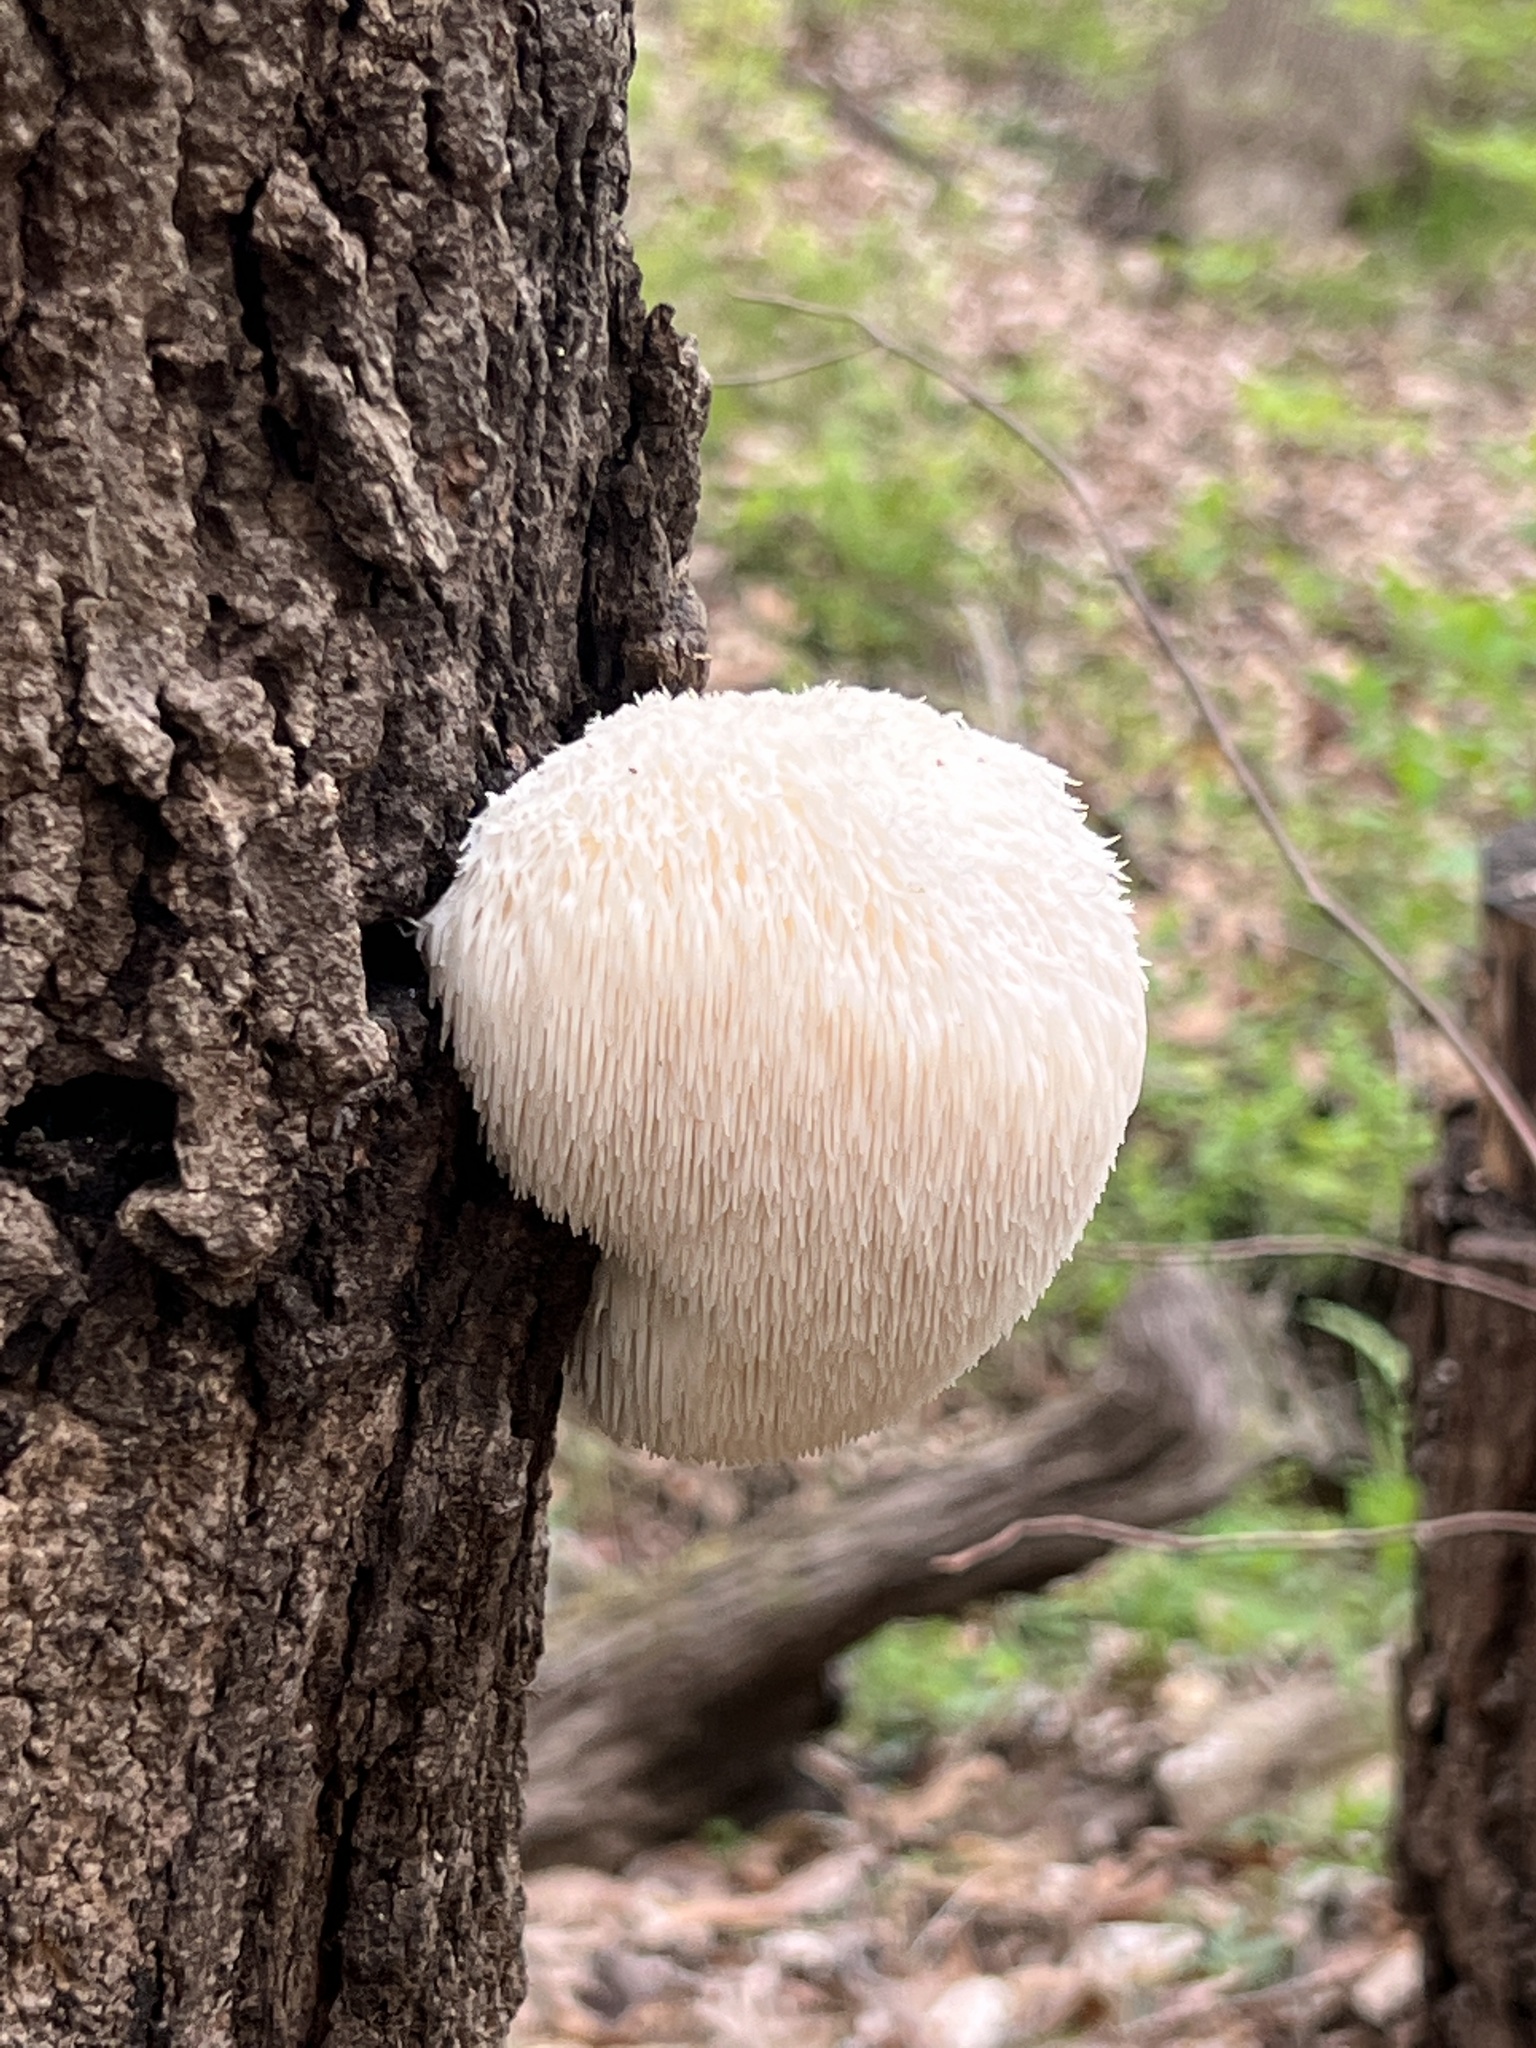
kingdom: Fungi
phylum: Basidiomycota
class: Agaricomycetes
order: Russulales
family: Hericiaceae
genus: Hericium
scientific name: Hericium erinaceus
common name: Bearded tooth
